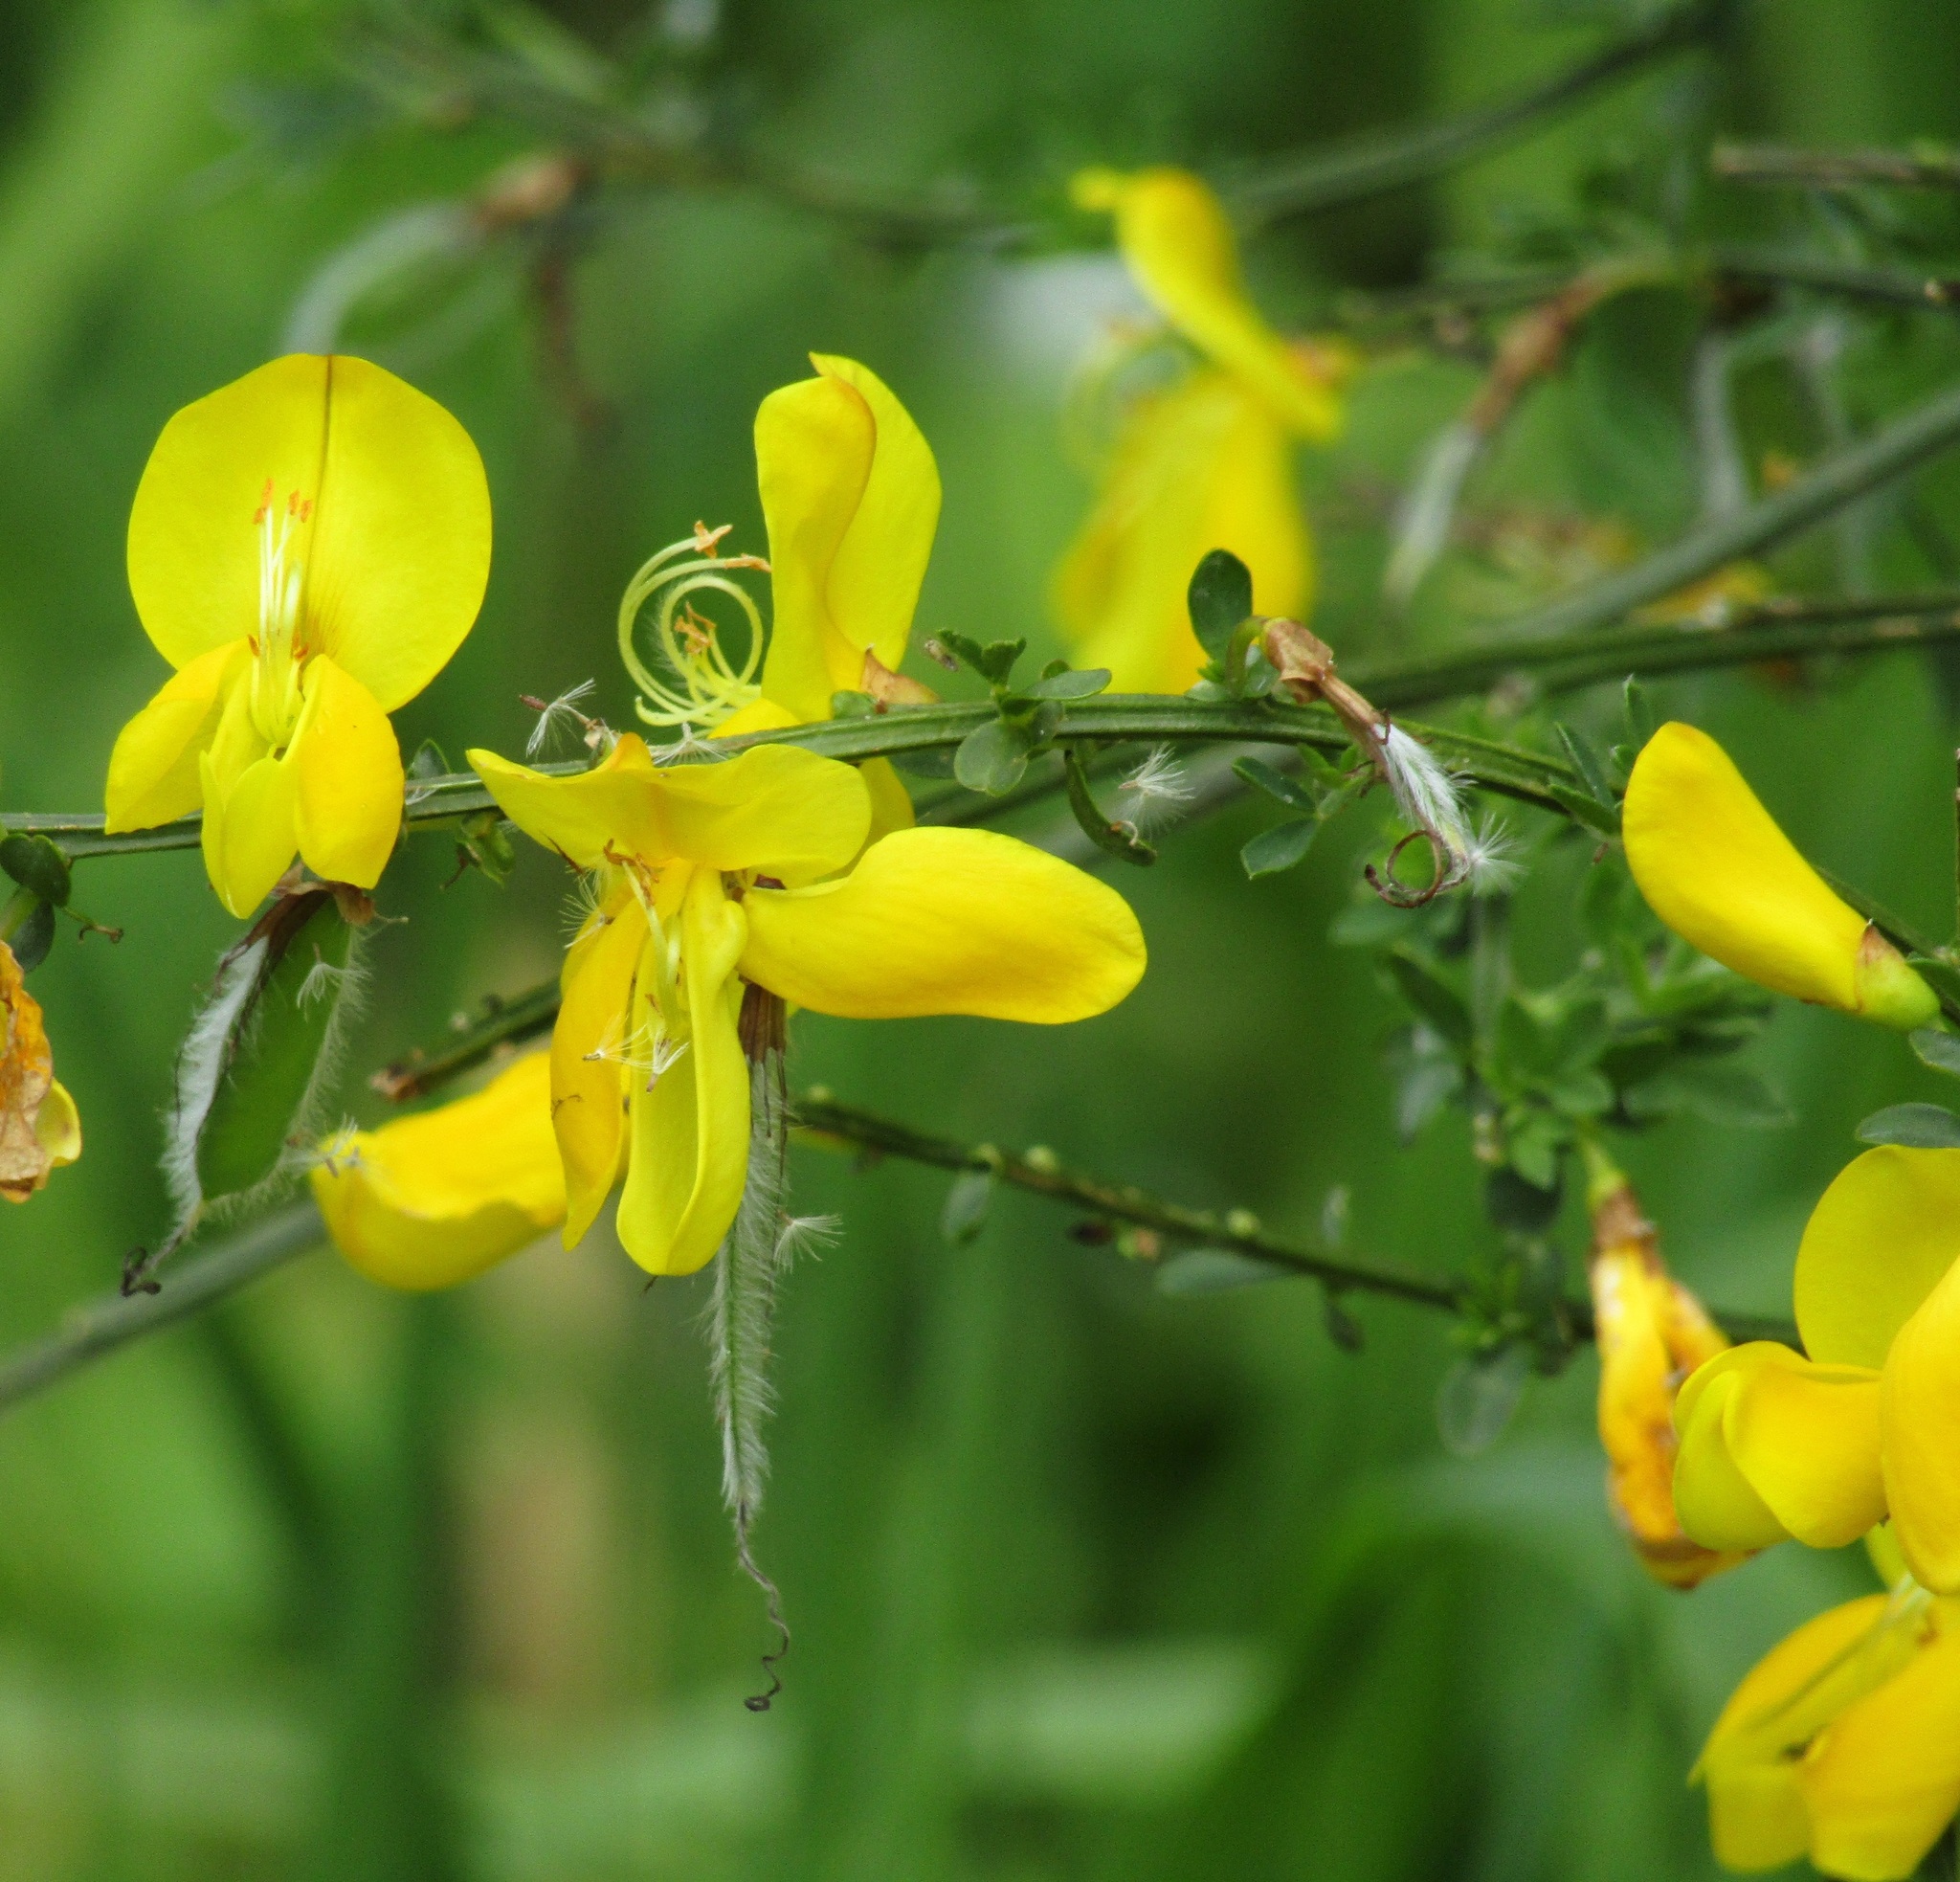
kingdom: Plantae
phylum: Tracheophyta
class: Magnoliopsida
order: Fabales
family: Fabaceae
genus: Cytisus
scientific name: Cytisus scoparius
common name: Scotch broom
